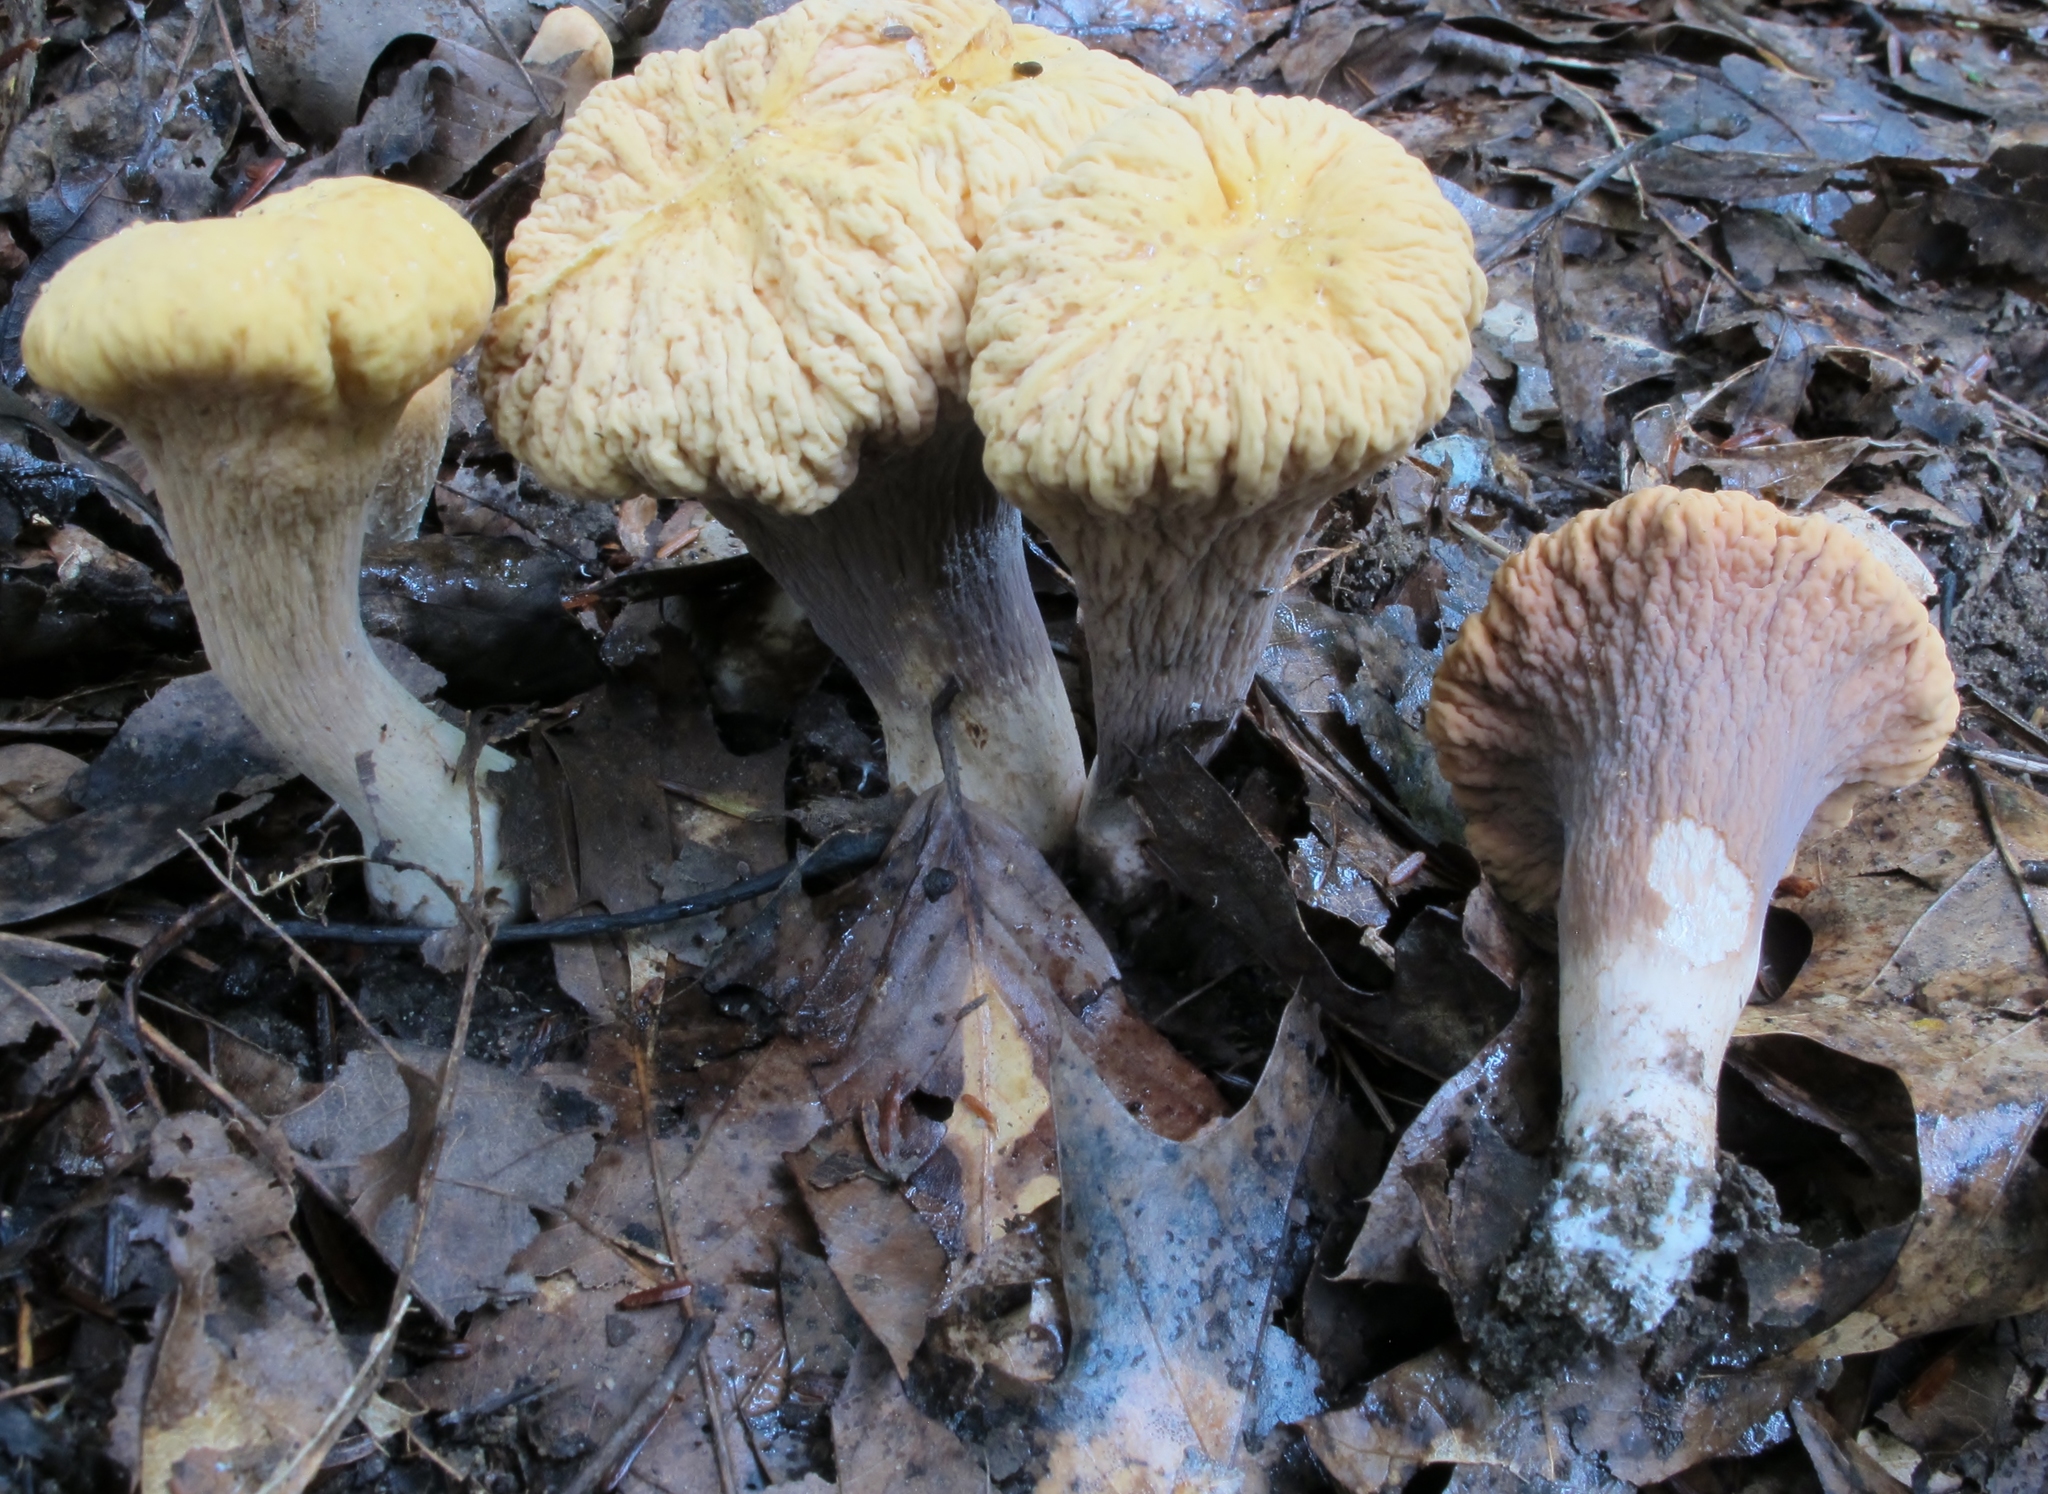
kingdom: Fungi
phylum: Basidiomycota
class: Agaricomycetes
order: Gomphales
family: Clavariadelphaceae
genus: Clavariadelphus
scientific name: Clavariadelphus truncatus
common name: Truncated club
